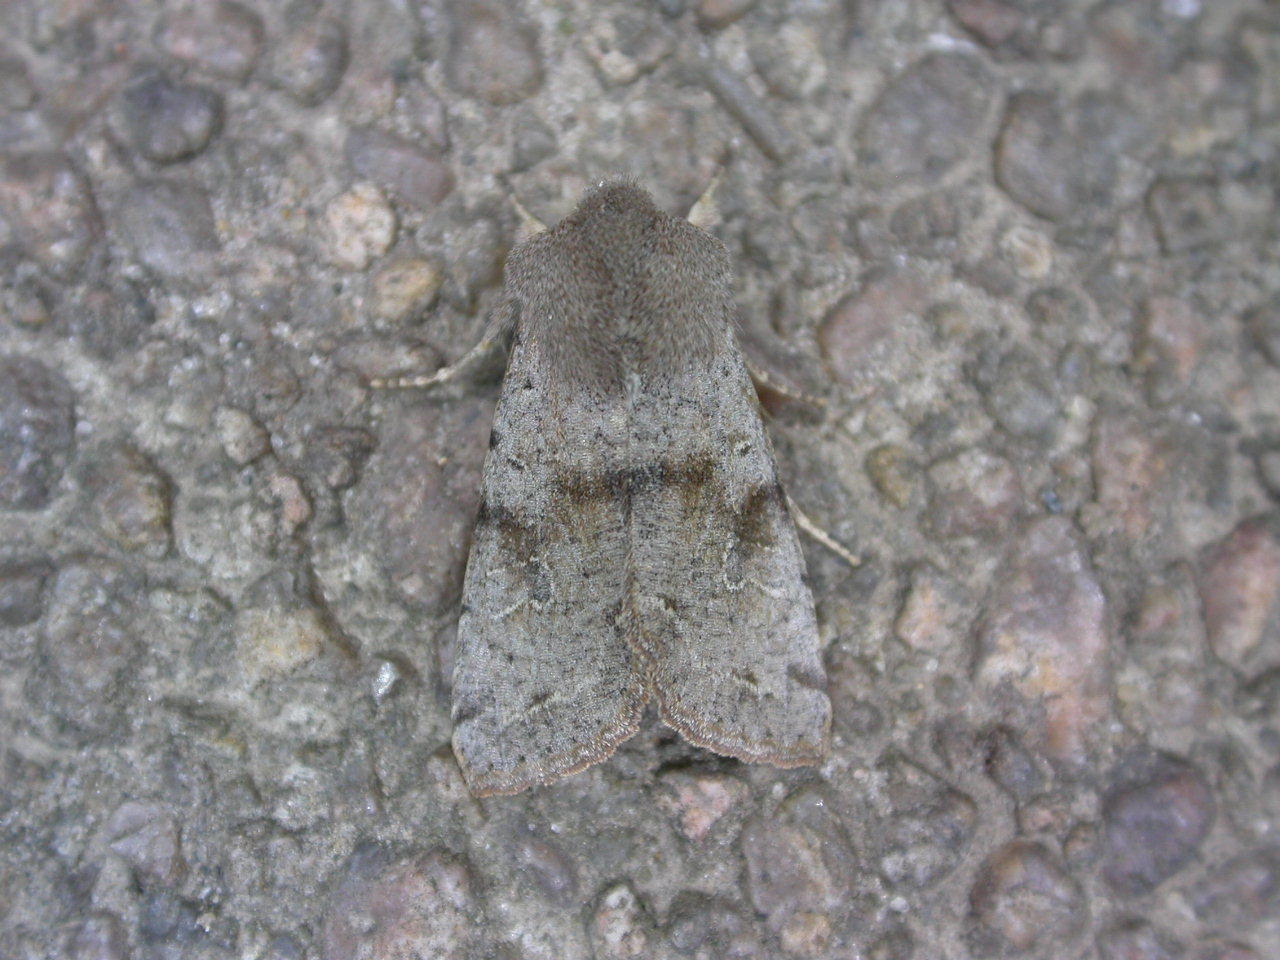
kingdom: Animalia
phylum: Arthropoda
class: Insecta
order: Lepidoptera
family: Noctuidae
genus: Orthosia
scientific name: Orthosia incerta
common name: Clouded drab
